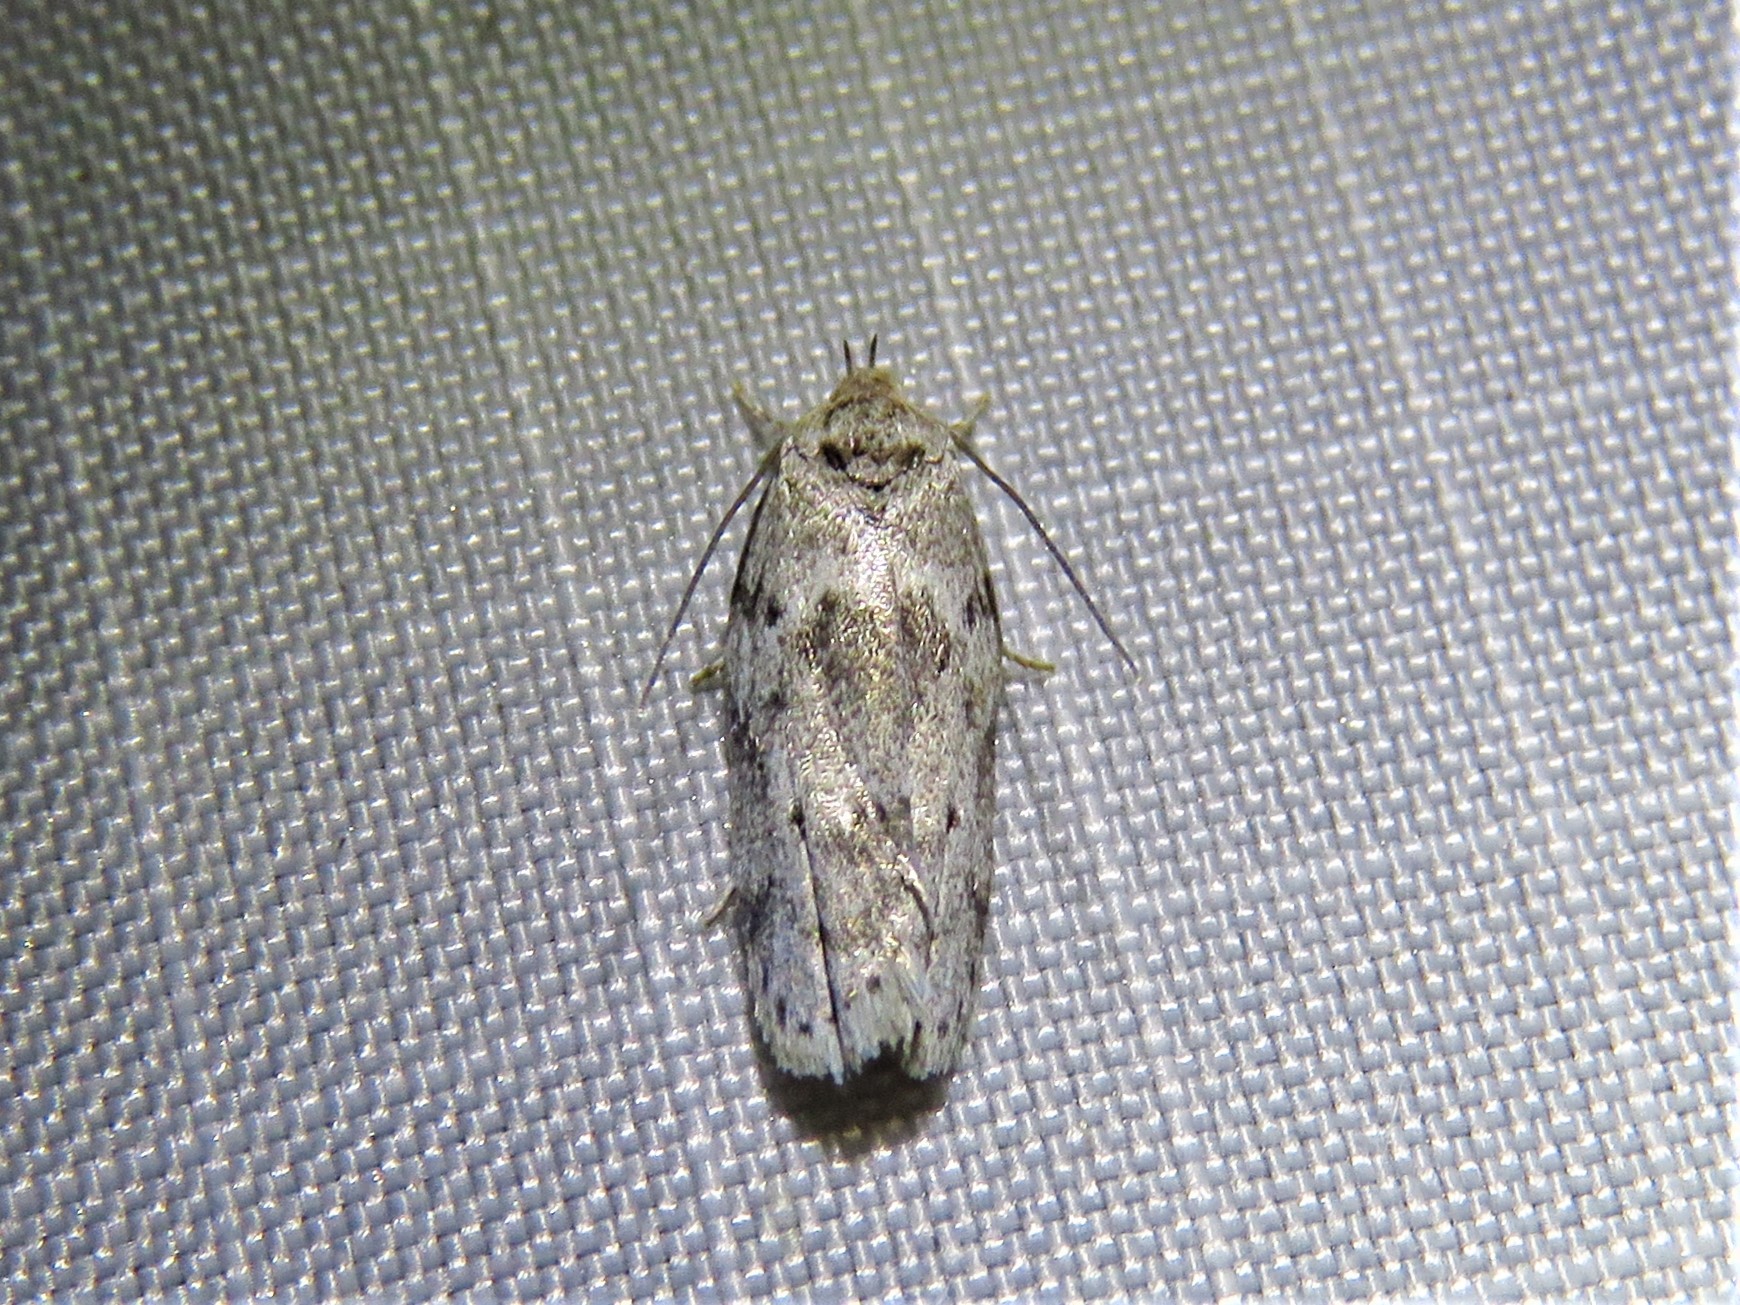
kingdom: Animalia
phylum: Arthropoda
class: Insecta
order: Lepidoptera
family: Depressariidae
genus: Antaeotricha
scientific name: Antaeotricha humilis
